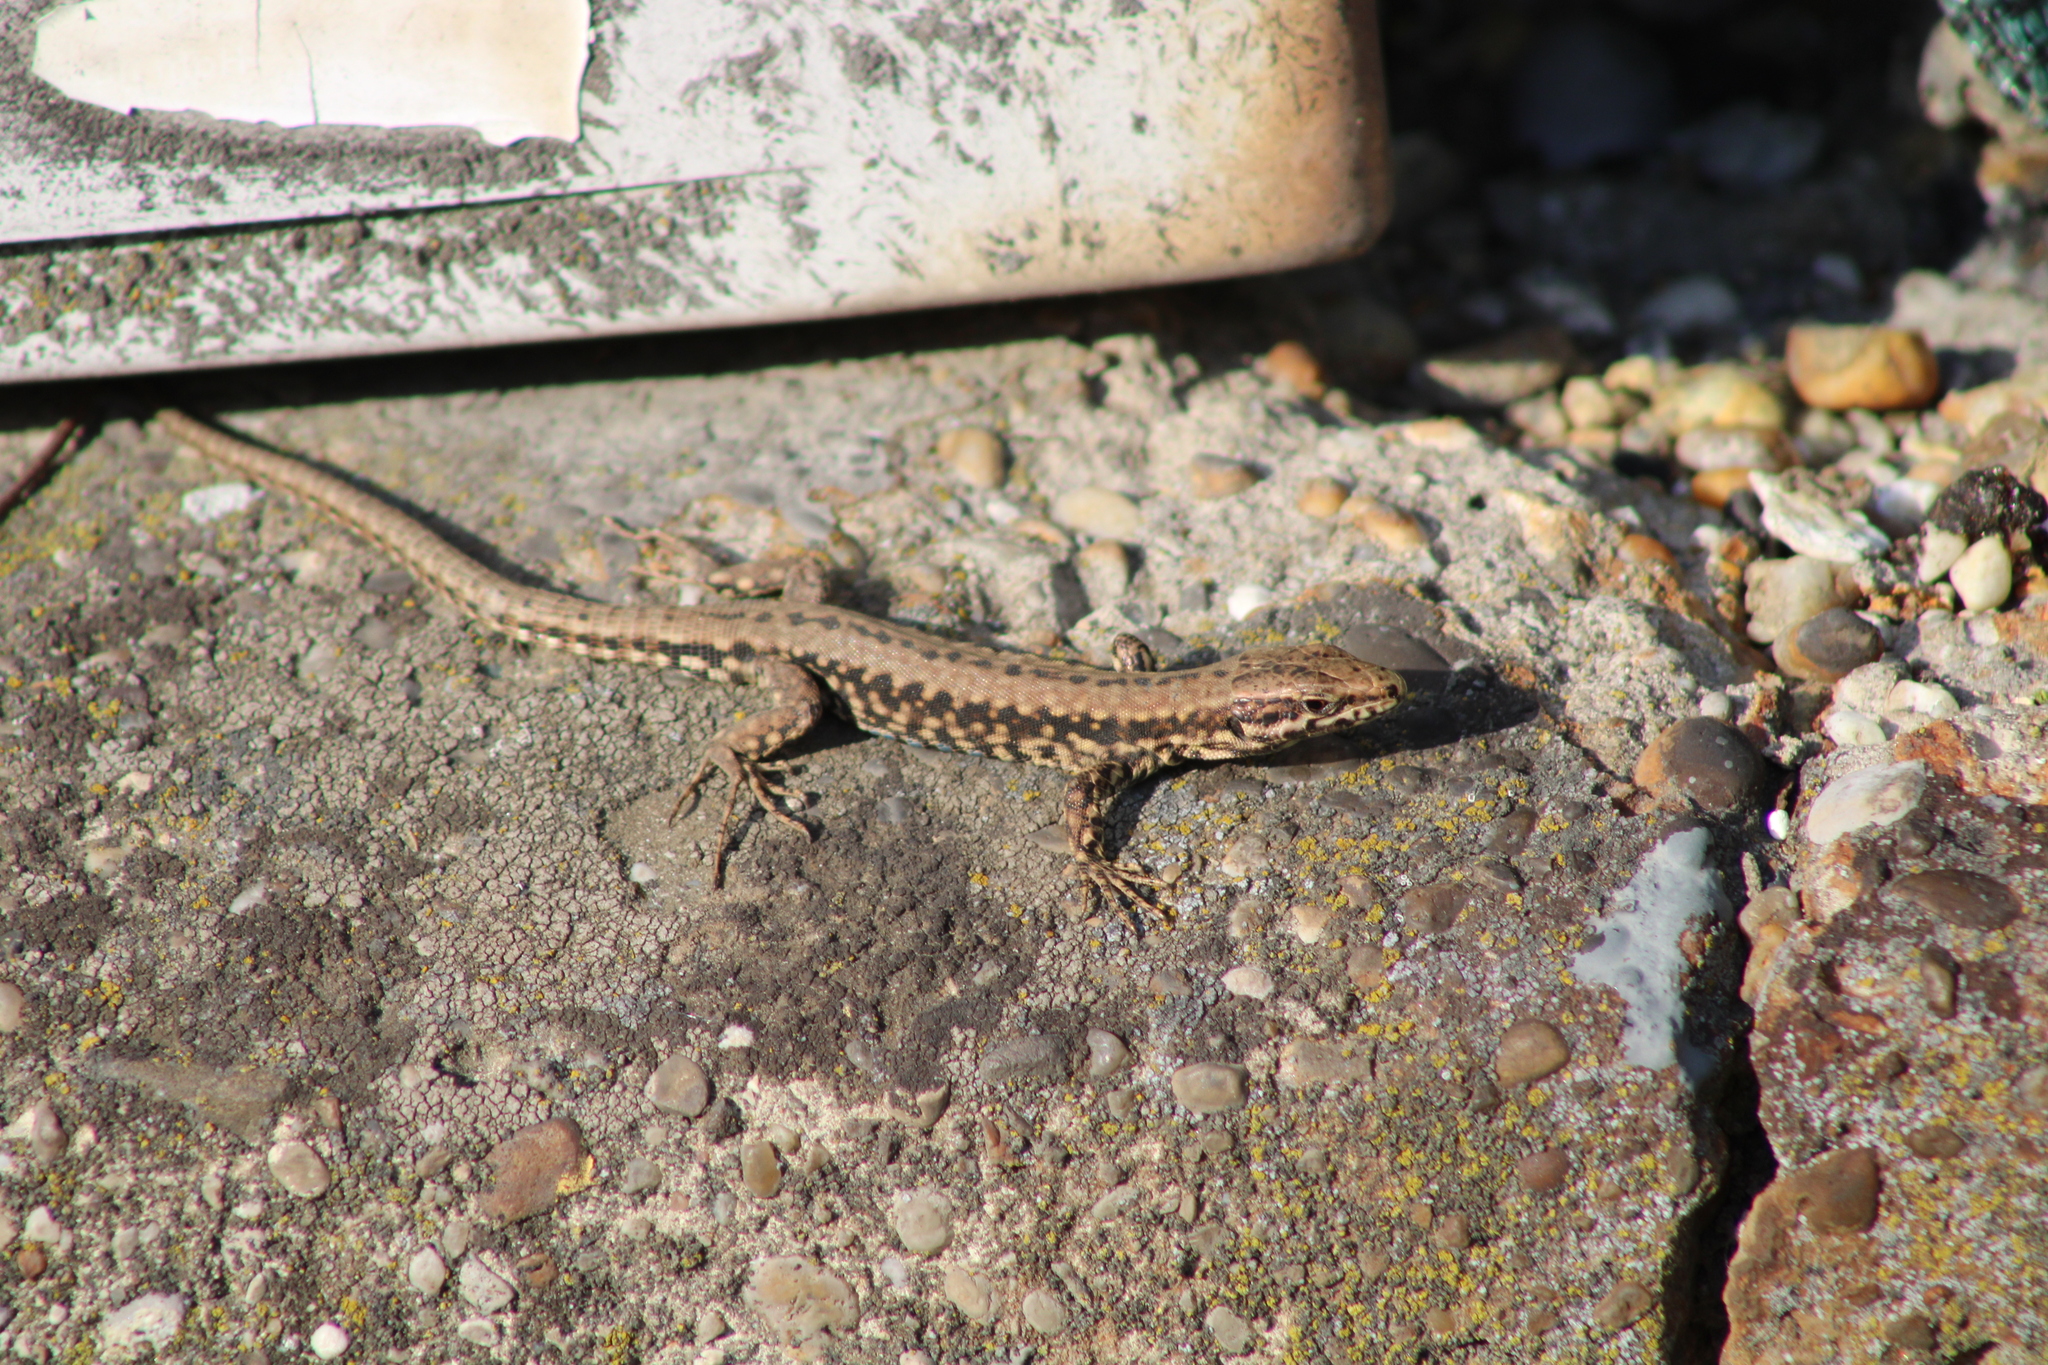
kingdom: Animalia
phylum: Chordata
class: Squamata
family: Lacertidae
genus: Podarcis
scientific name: Podarcis muralis
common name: Common wall lizard
